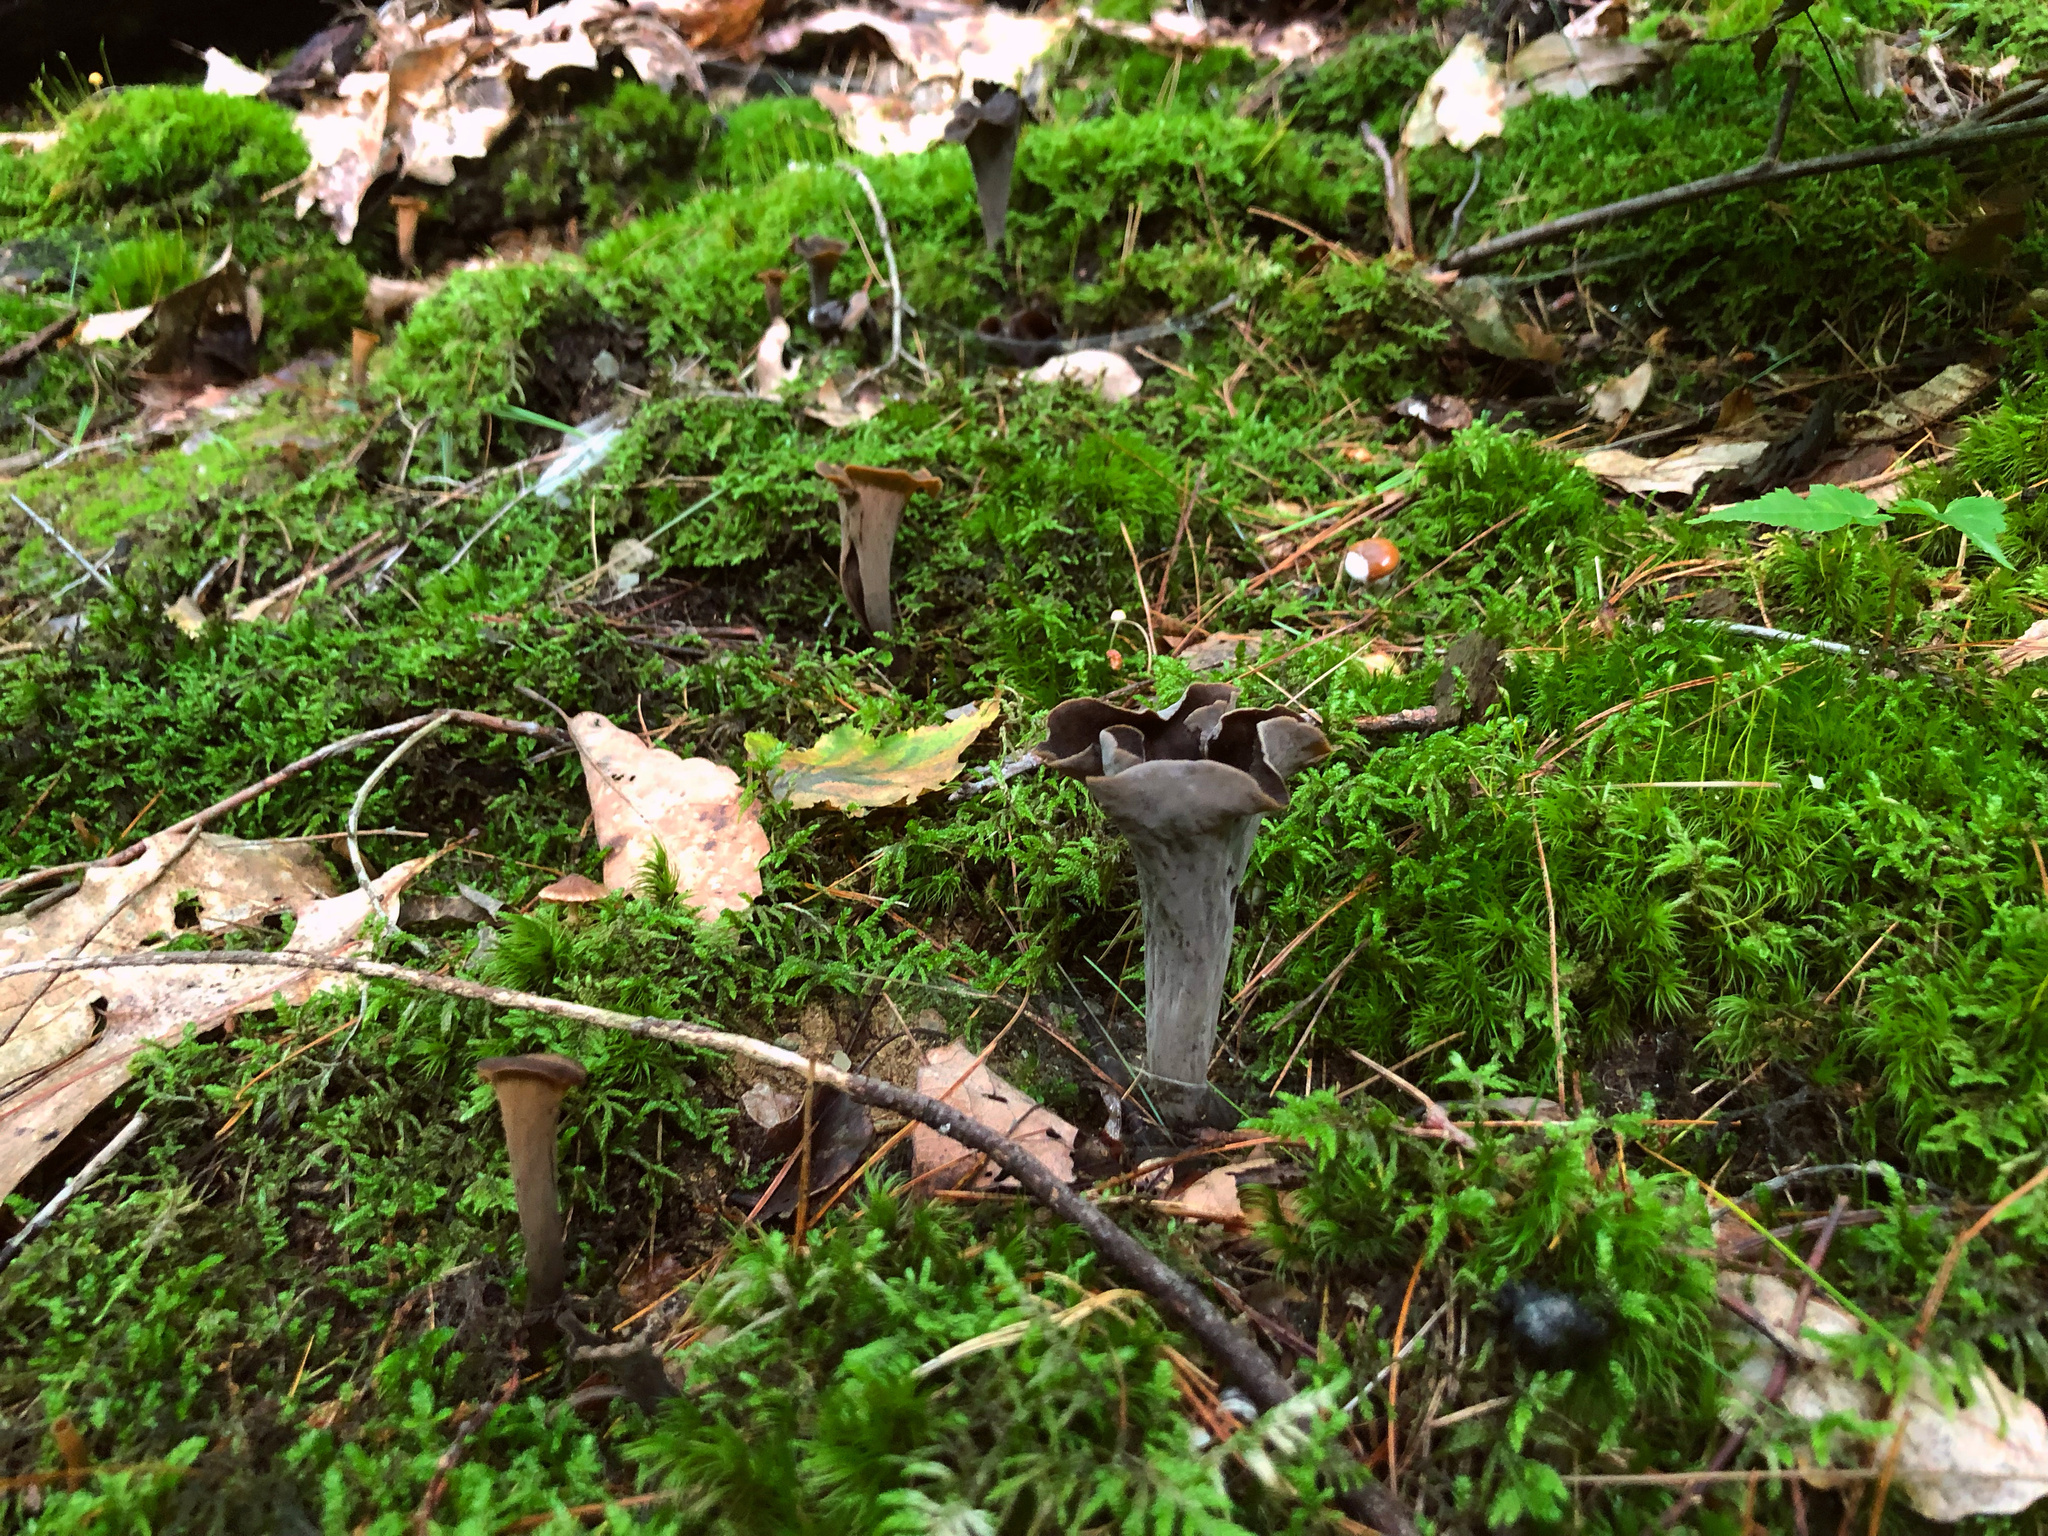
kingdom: Fungi
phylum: Basidiomycota
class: Agaricomycetes
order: Cantharellales
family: Hydnaceae
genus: Craterellus
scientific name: Craterellus cornucopioides
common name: Horn of plenty
